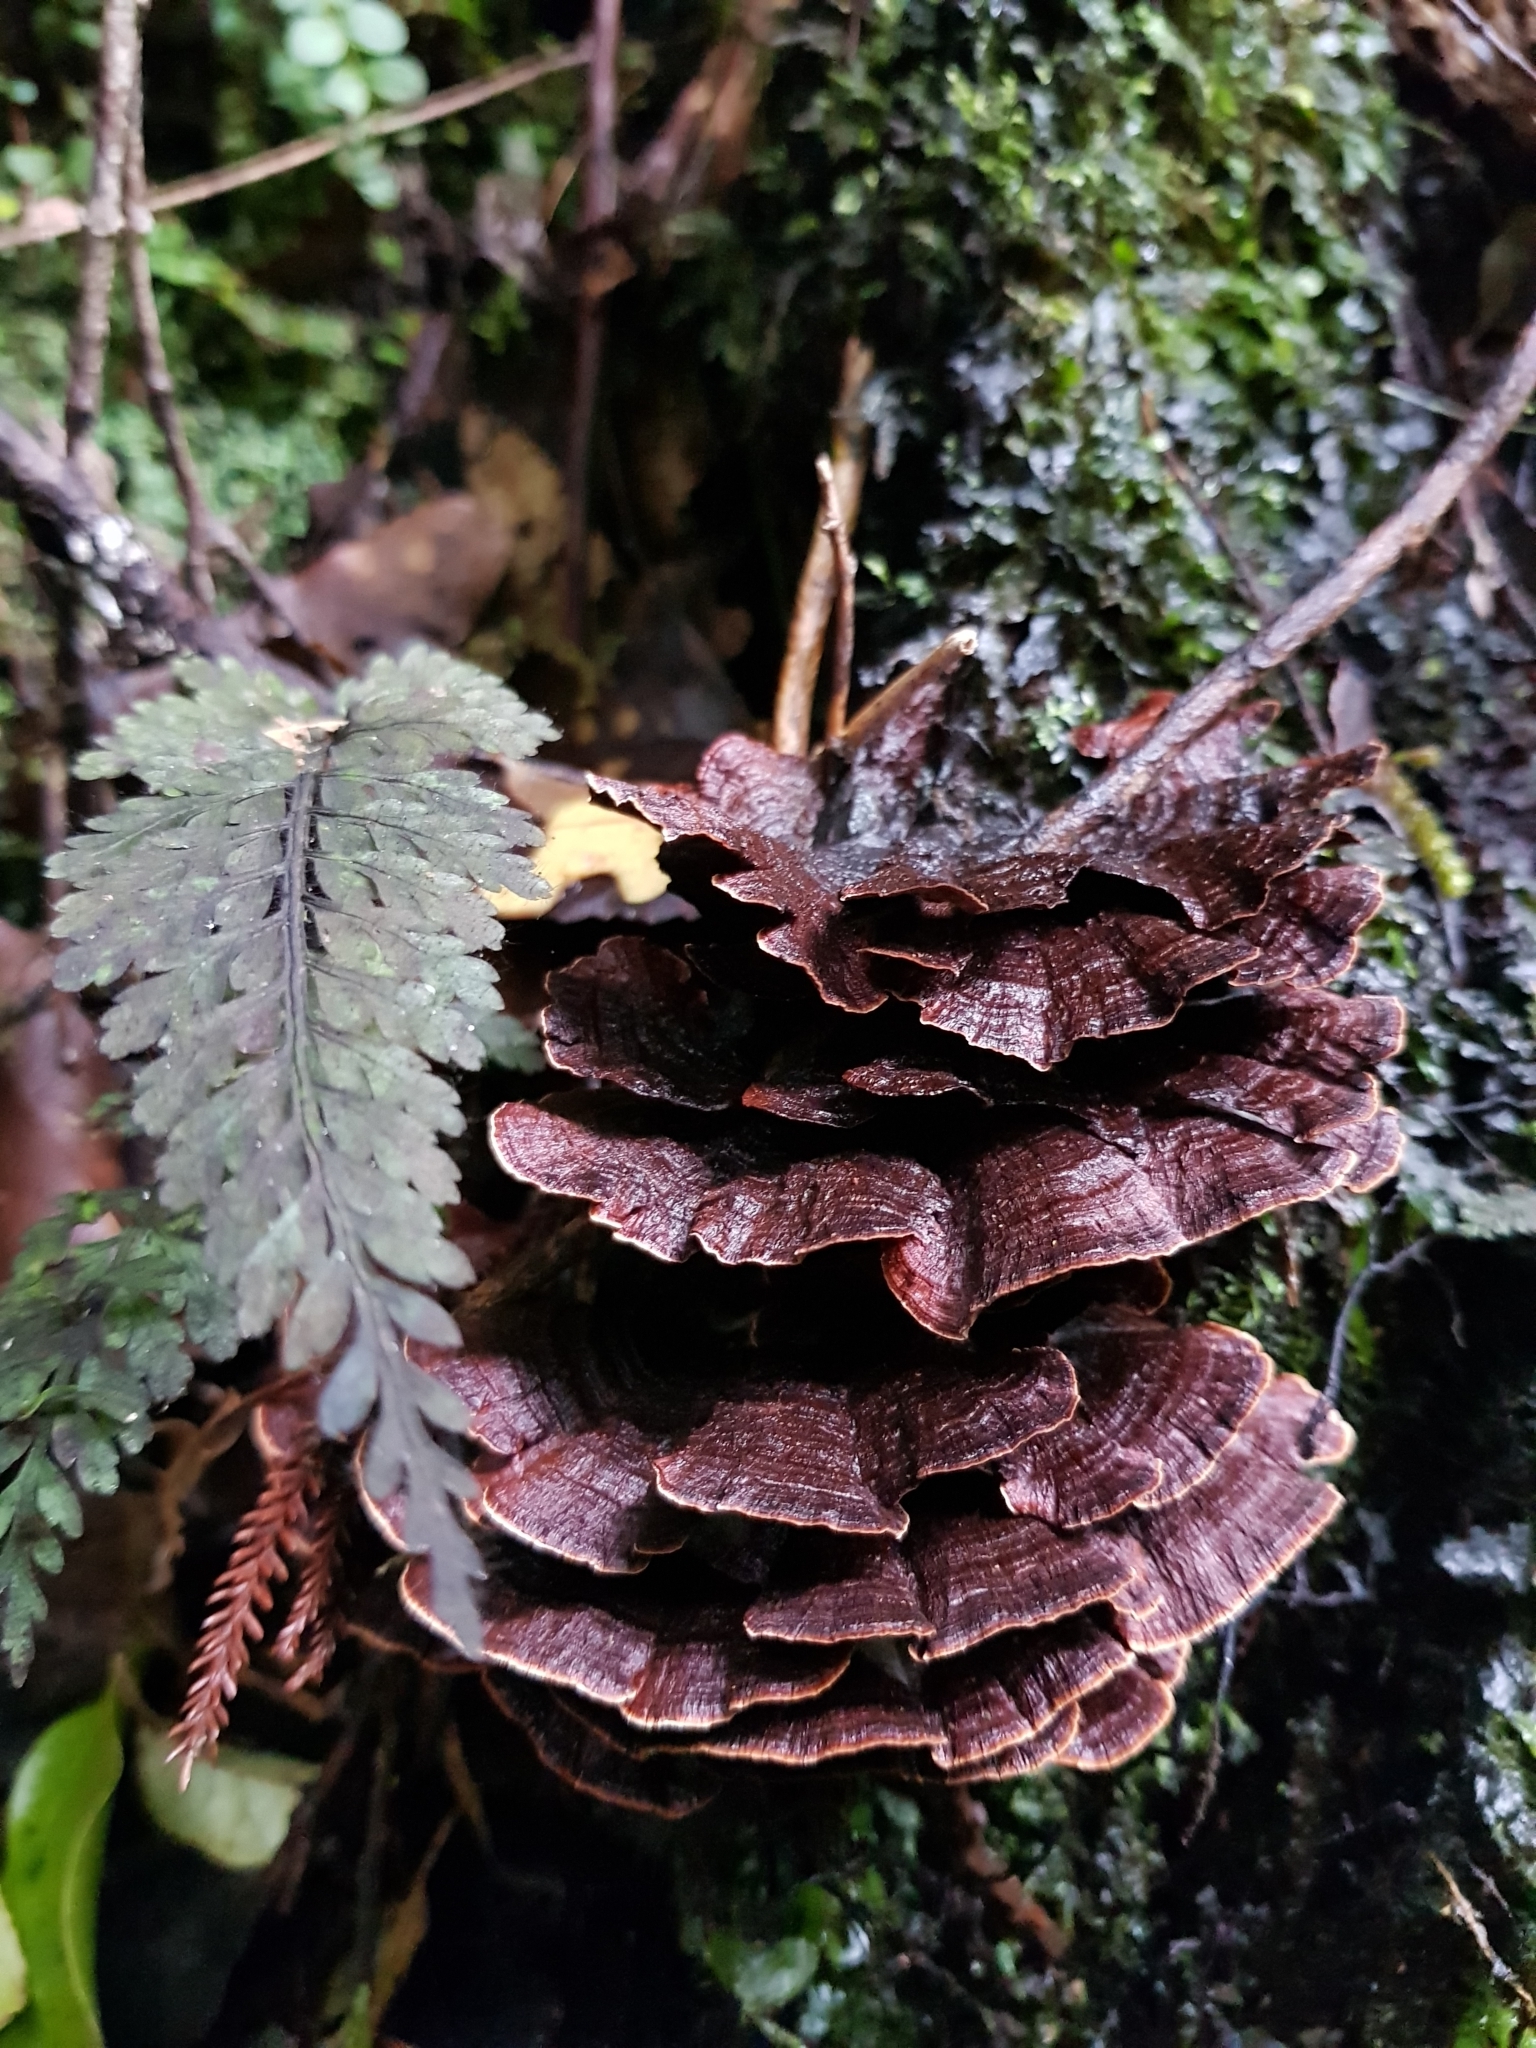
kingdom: Fungi
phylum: Basidiomycota
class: Agaricomycetes
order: Hymenochaetales
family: Hymenochaetaceae
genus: Hymenochaete
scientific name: Hymenochaete microcycla
